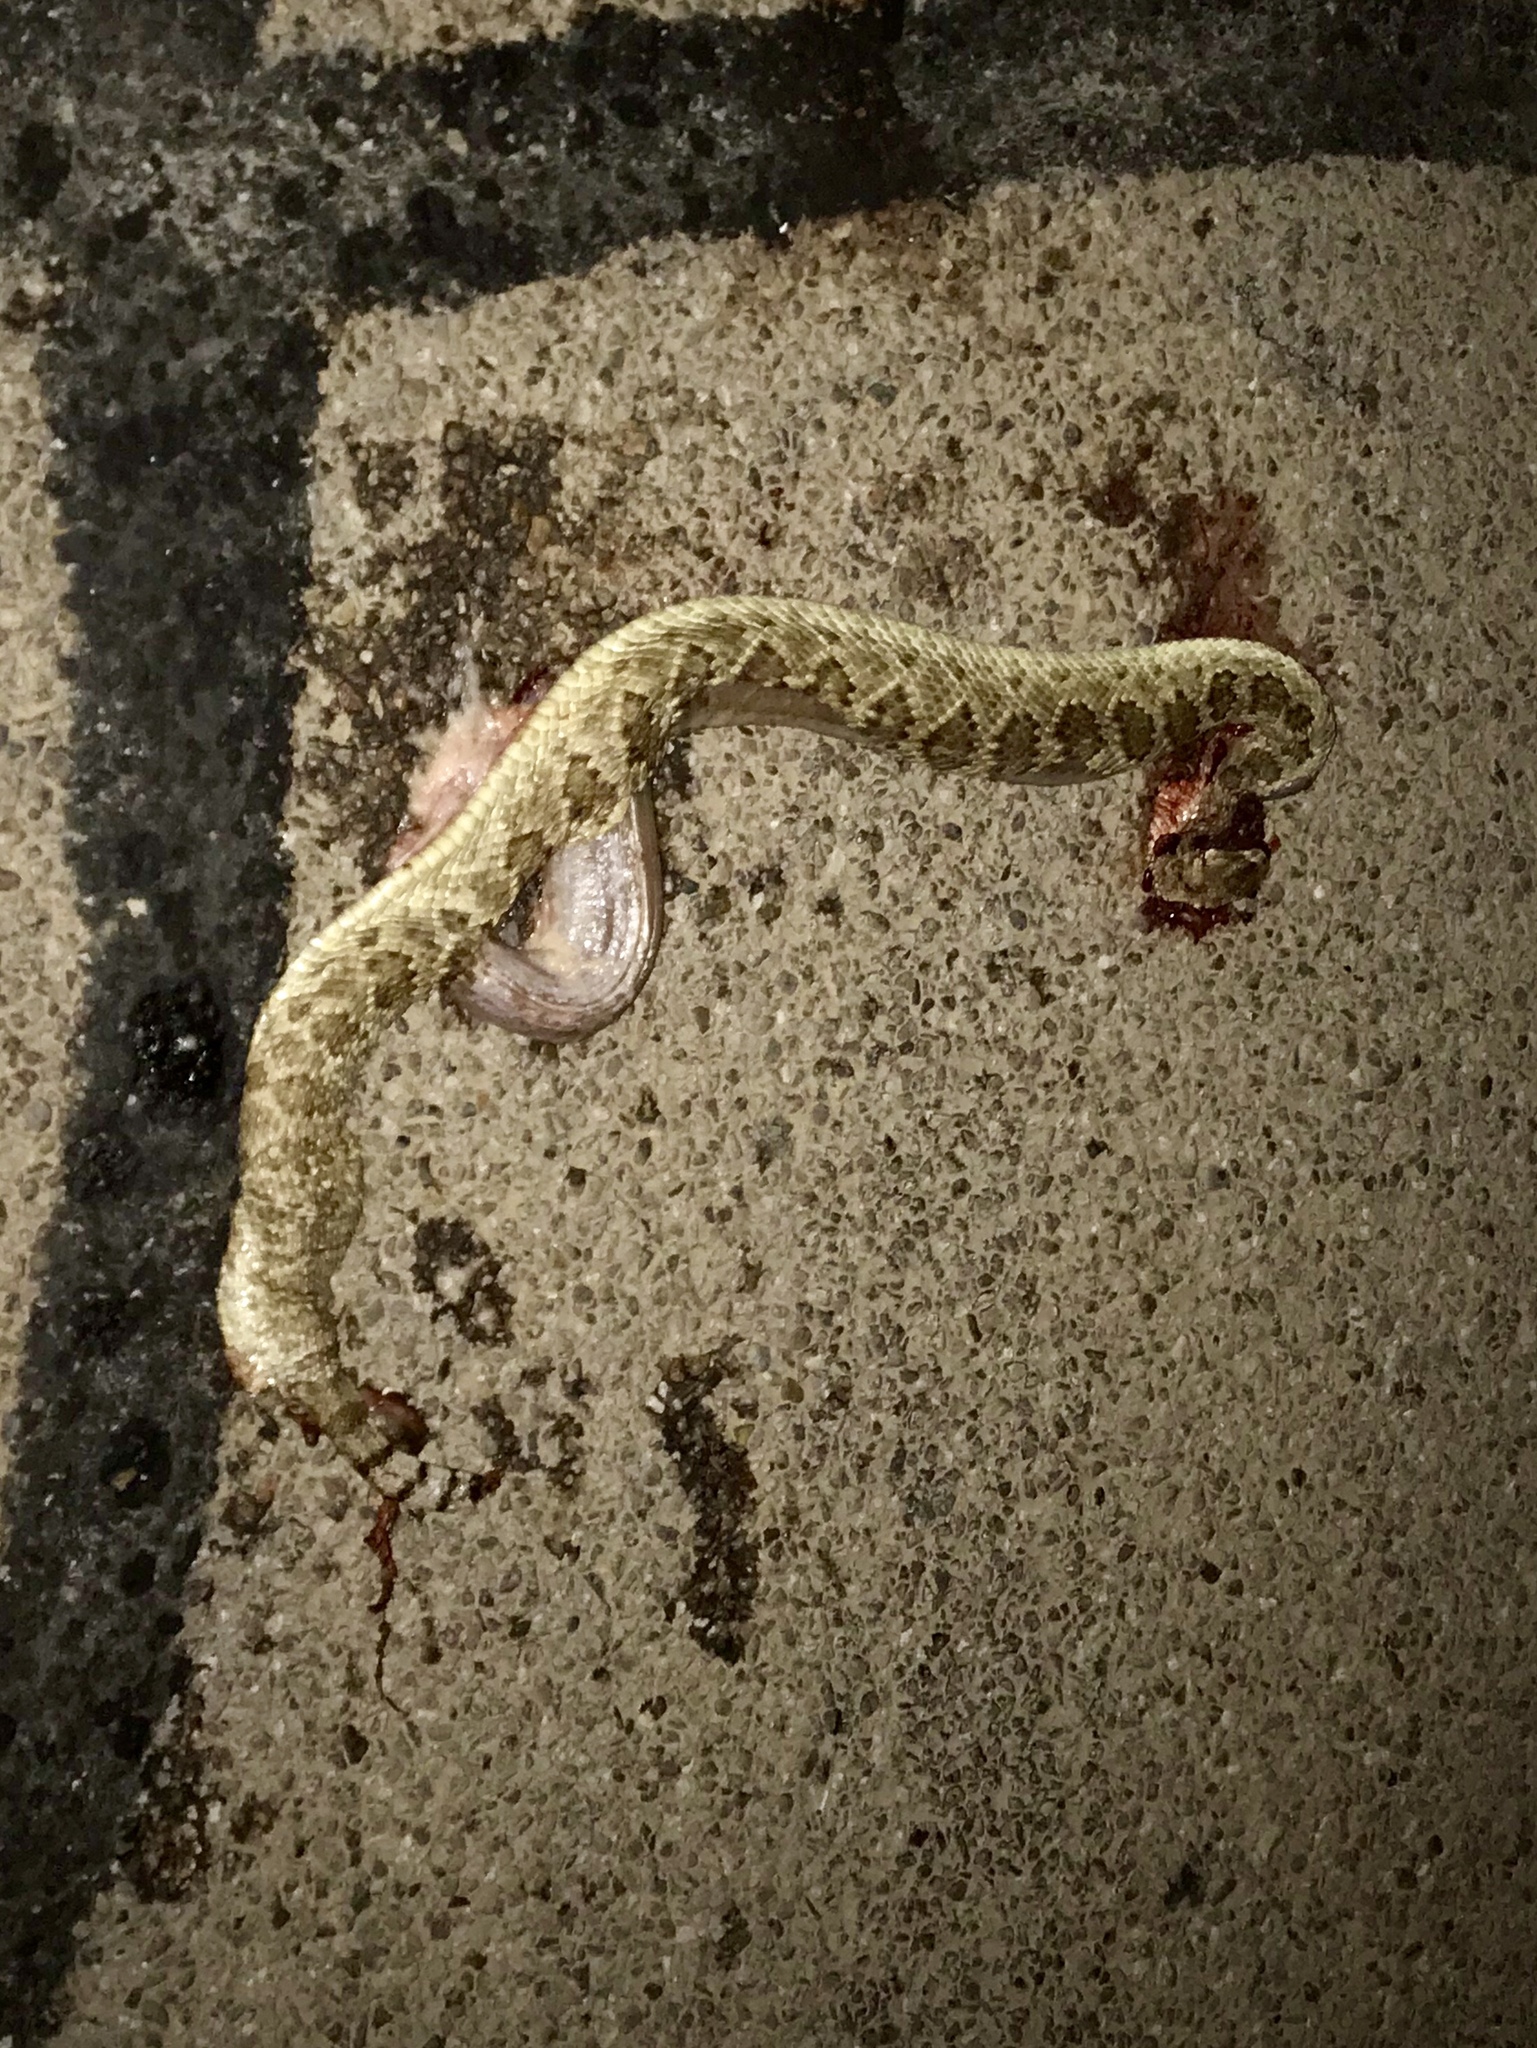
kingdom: Animalia
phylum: Chordata
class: Squamata
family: Viperidae
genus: Crotalus
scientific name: Crotalus scutulatus
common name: Scutulatus
